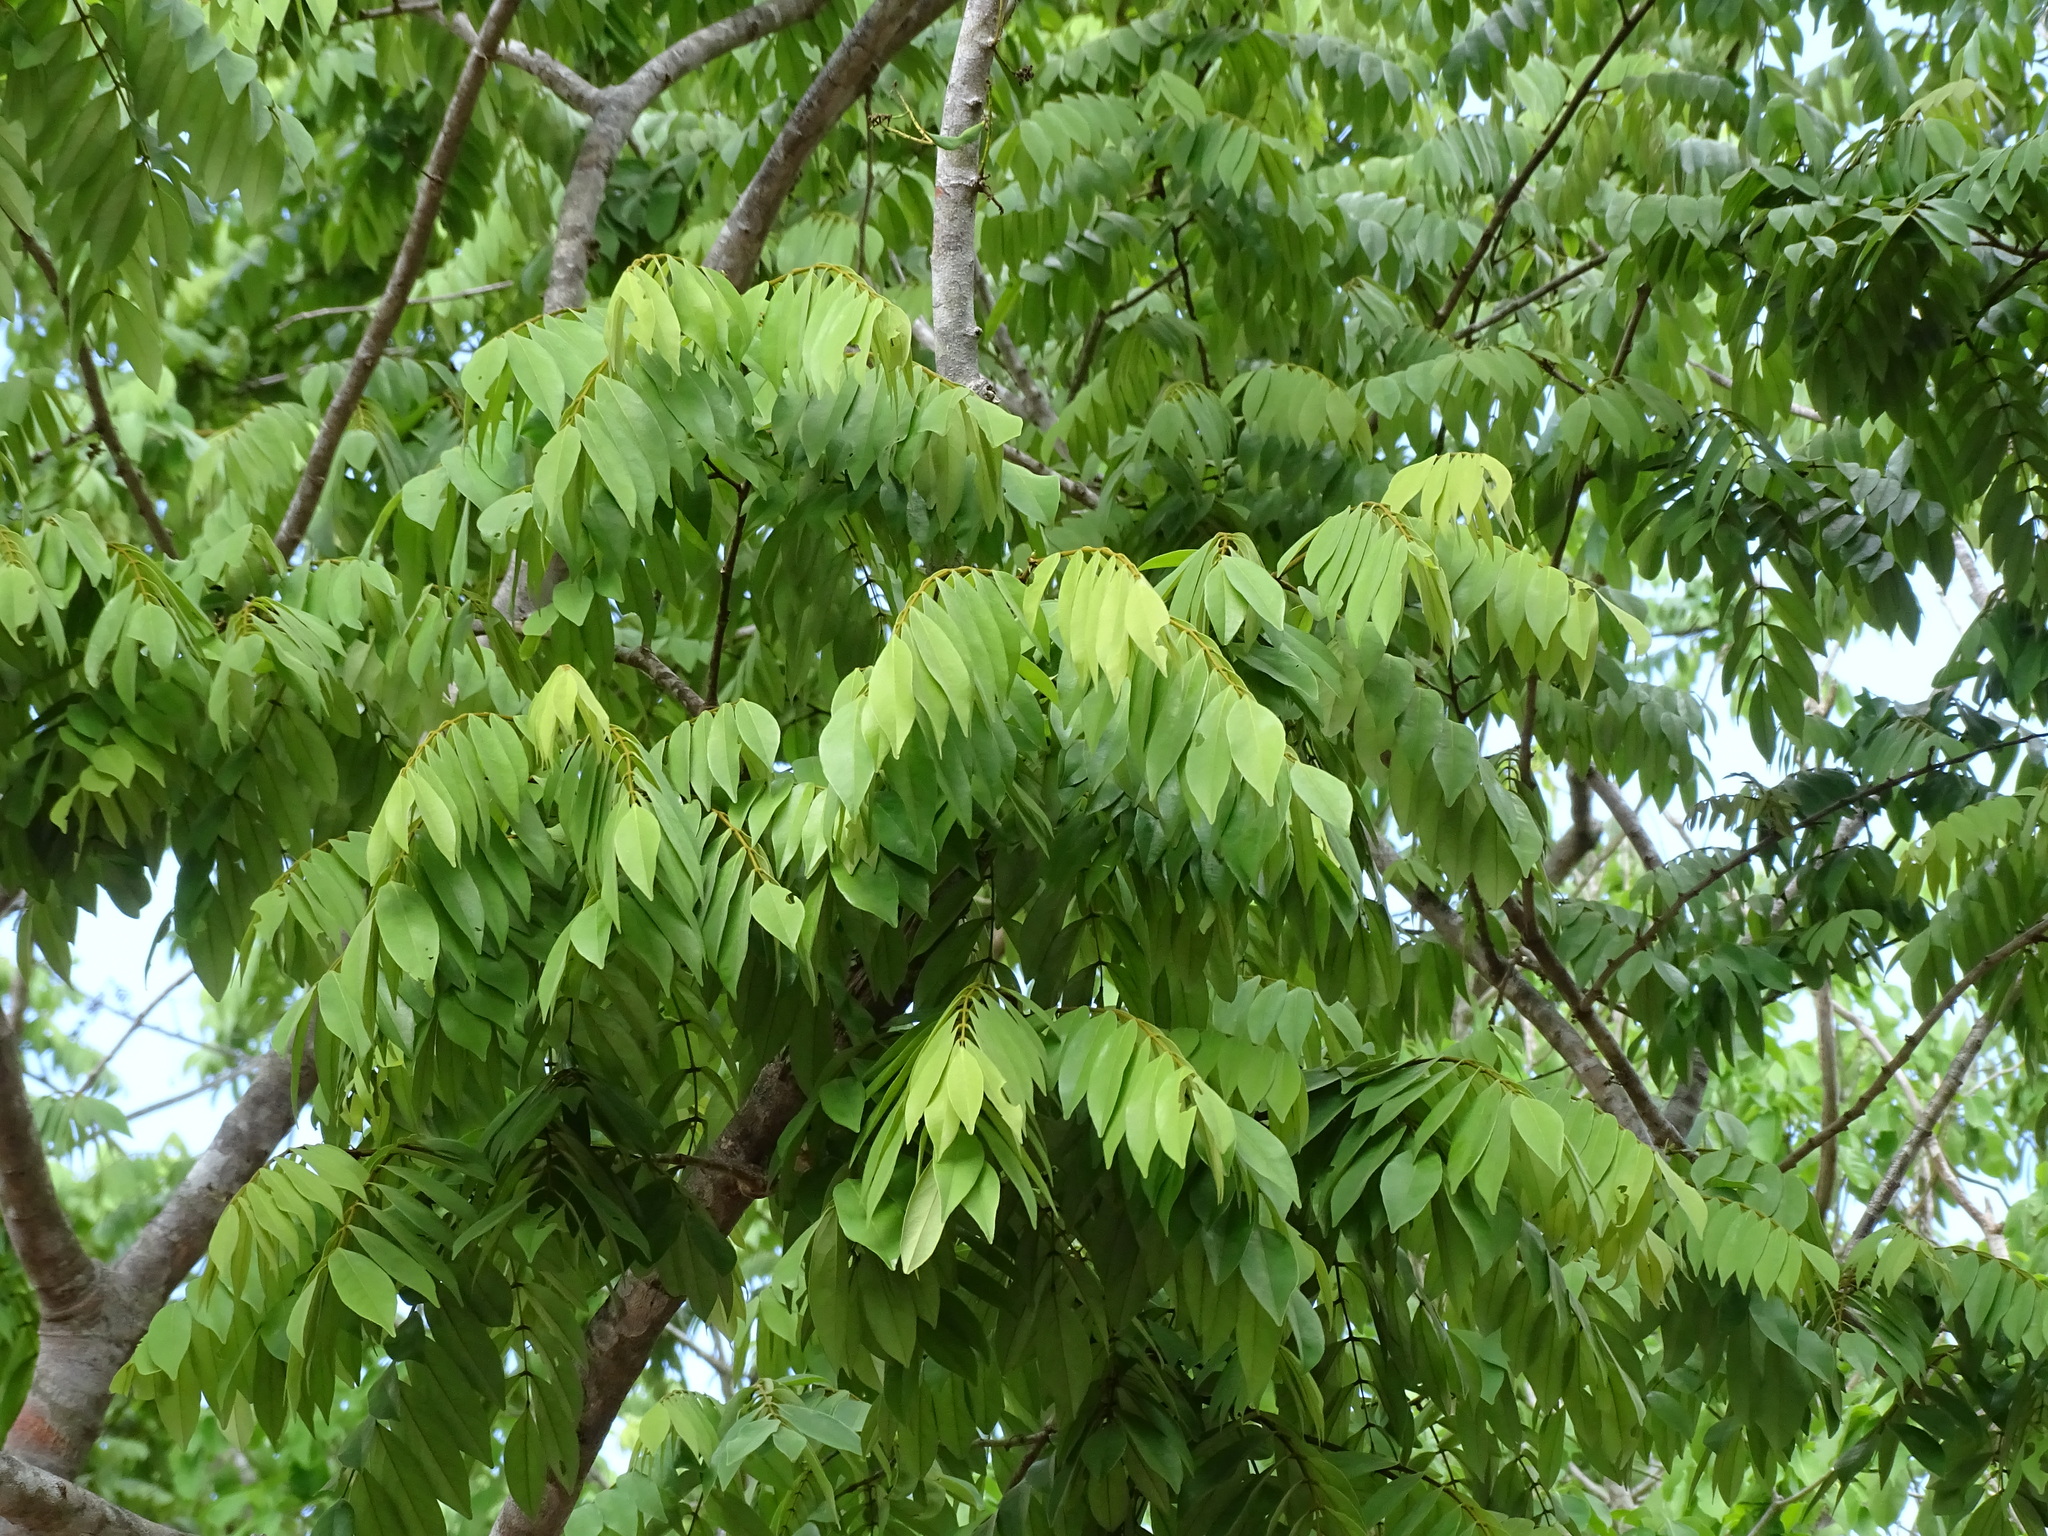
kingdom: Plantae
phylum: Tracheophyta
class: Magnoliopsida
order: Fabales
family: Fabaceae
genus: Swartzia
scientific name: Swartzia cubensis
